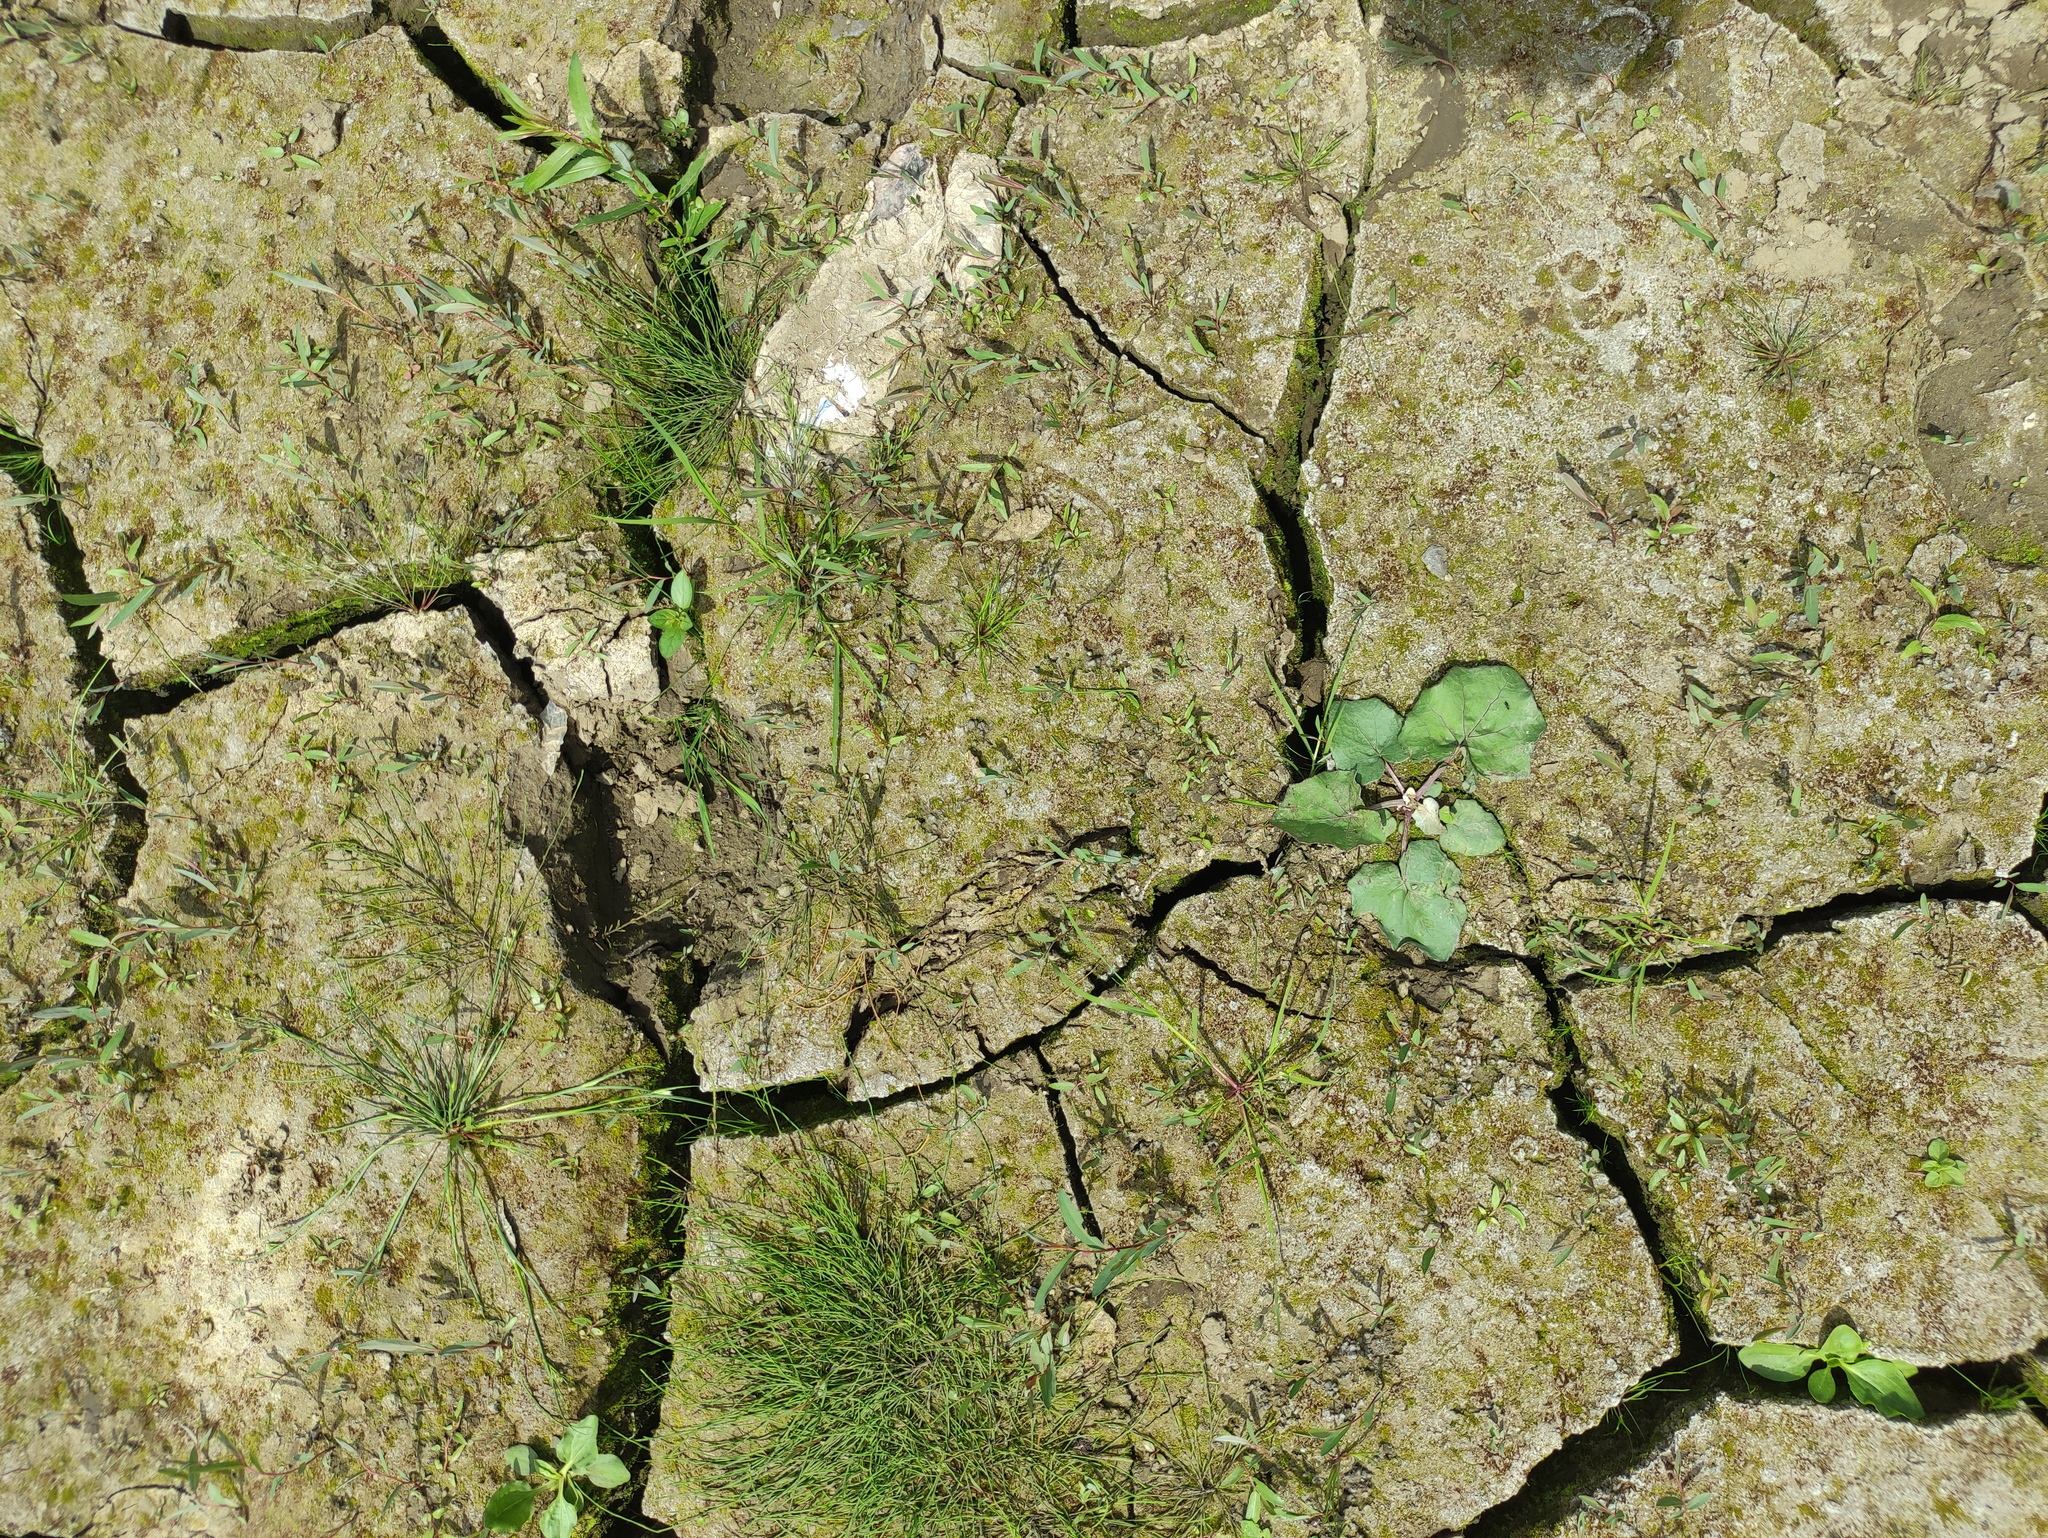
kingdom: Plantae
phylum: Tracheophyta
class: Magnoliopsida
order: Asterales
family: Asteraceae
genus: Tussilago
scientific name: Tussilago farfara
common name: Coltsfoot
